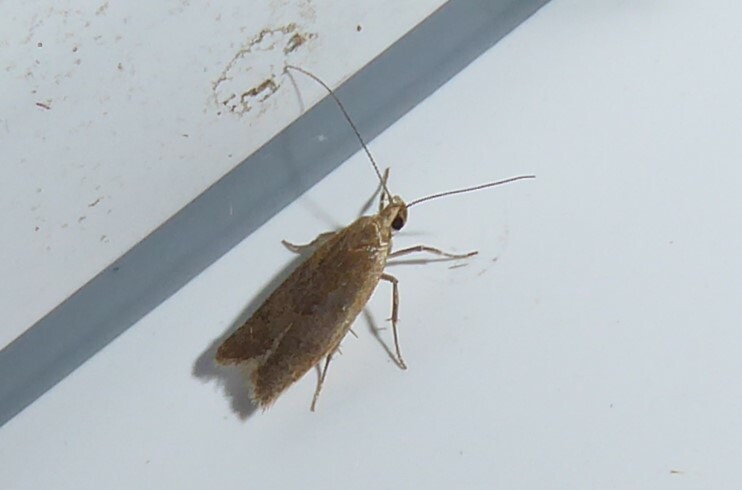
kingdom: Animalia
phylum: Arthropoda
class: Insecta
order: Lepidoptera
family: Oecophoridae
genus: Gymnobathra
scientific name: Gymnobathra parca
